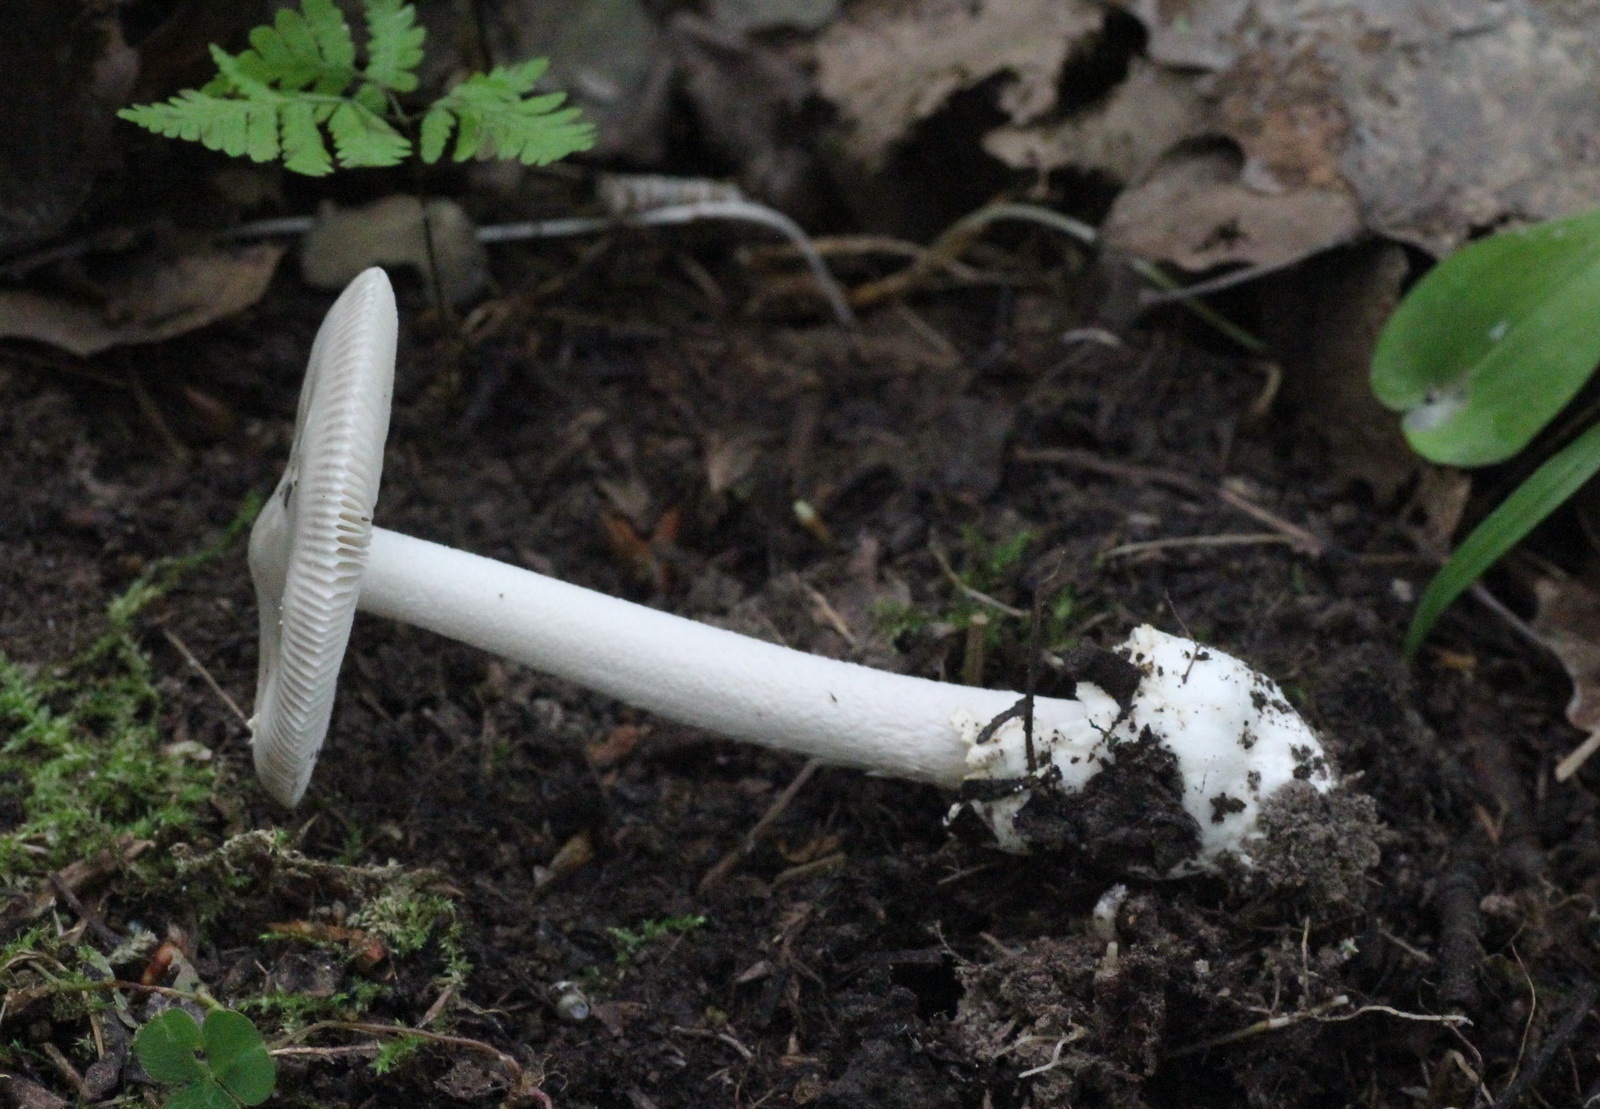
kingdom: Fungi
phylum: Basidiomycota
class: Agaricomycetes
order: Agaricales
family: Amanitaceae
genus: Amanita
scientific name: Amanita vaginata
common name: Grisette
